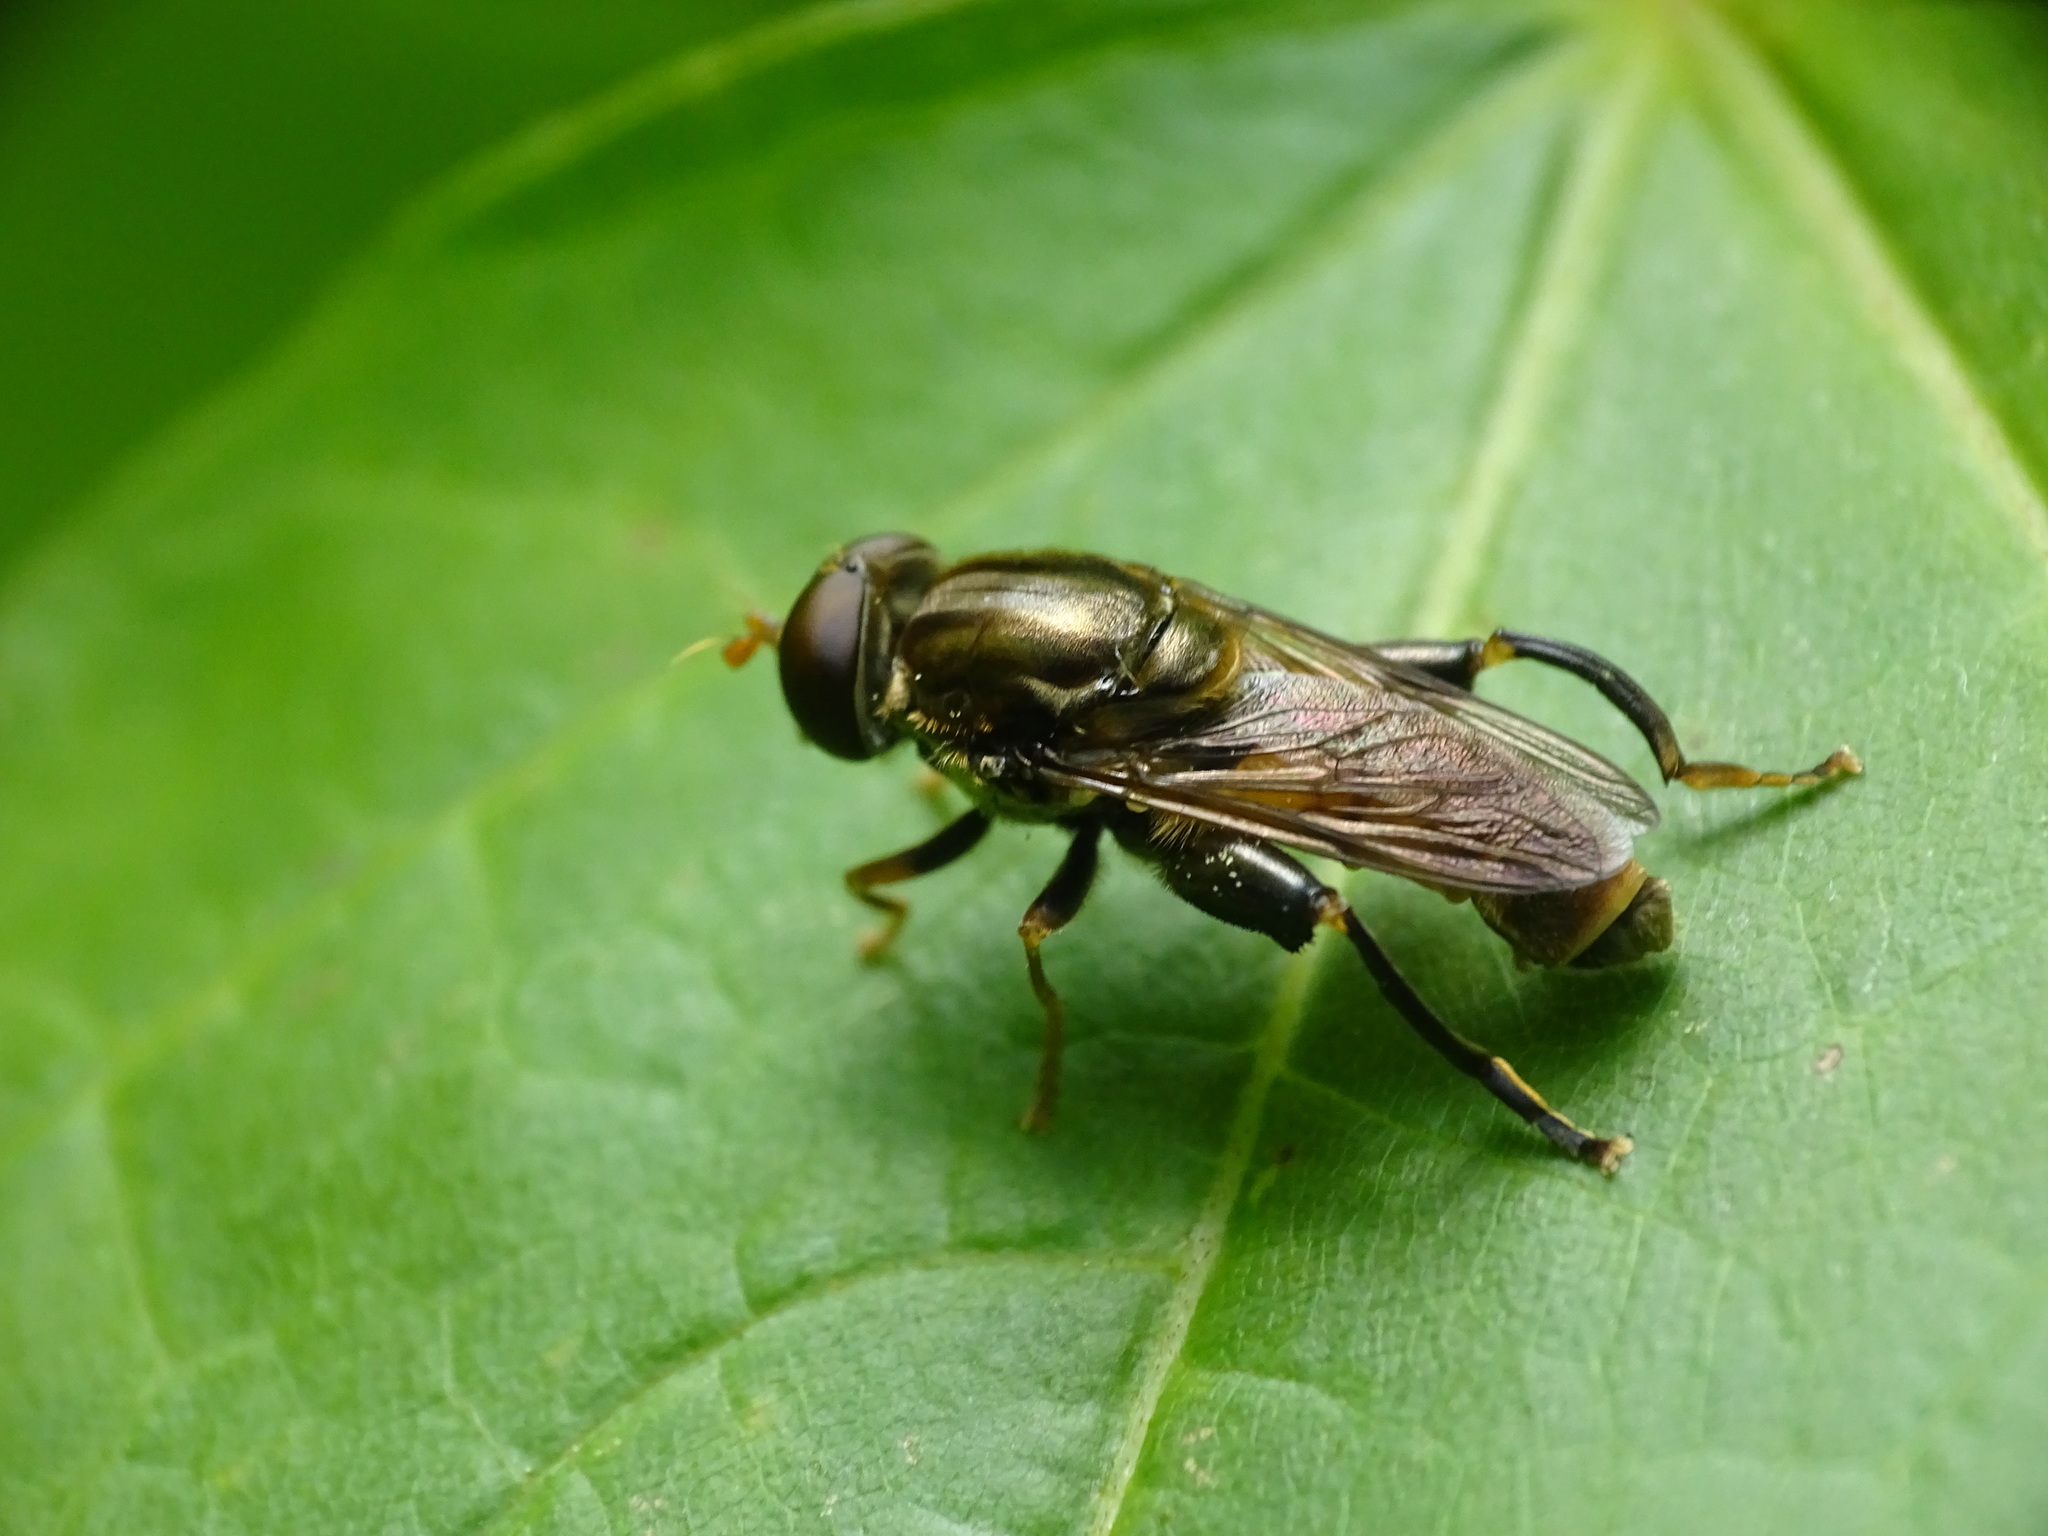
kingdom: Animalia
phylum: Arthropoda
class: Insecta
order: Diptera
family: Syrphidae
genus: Tropidia
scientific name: Tropidia quadrata
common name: Common thick-legged fly
